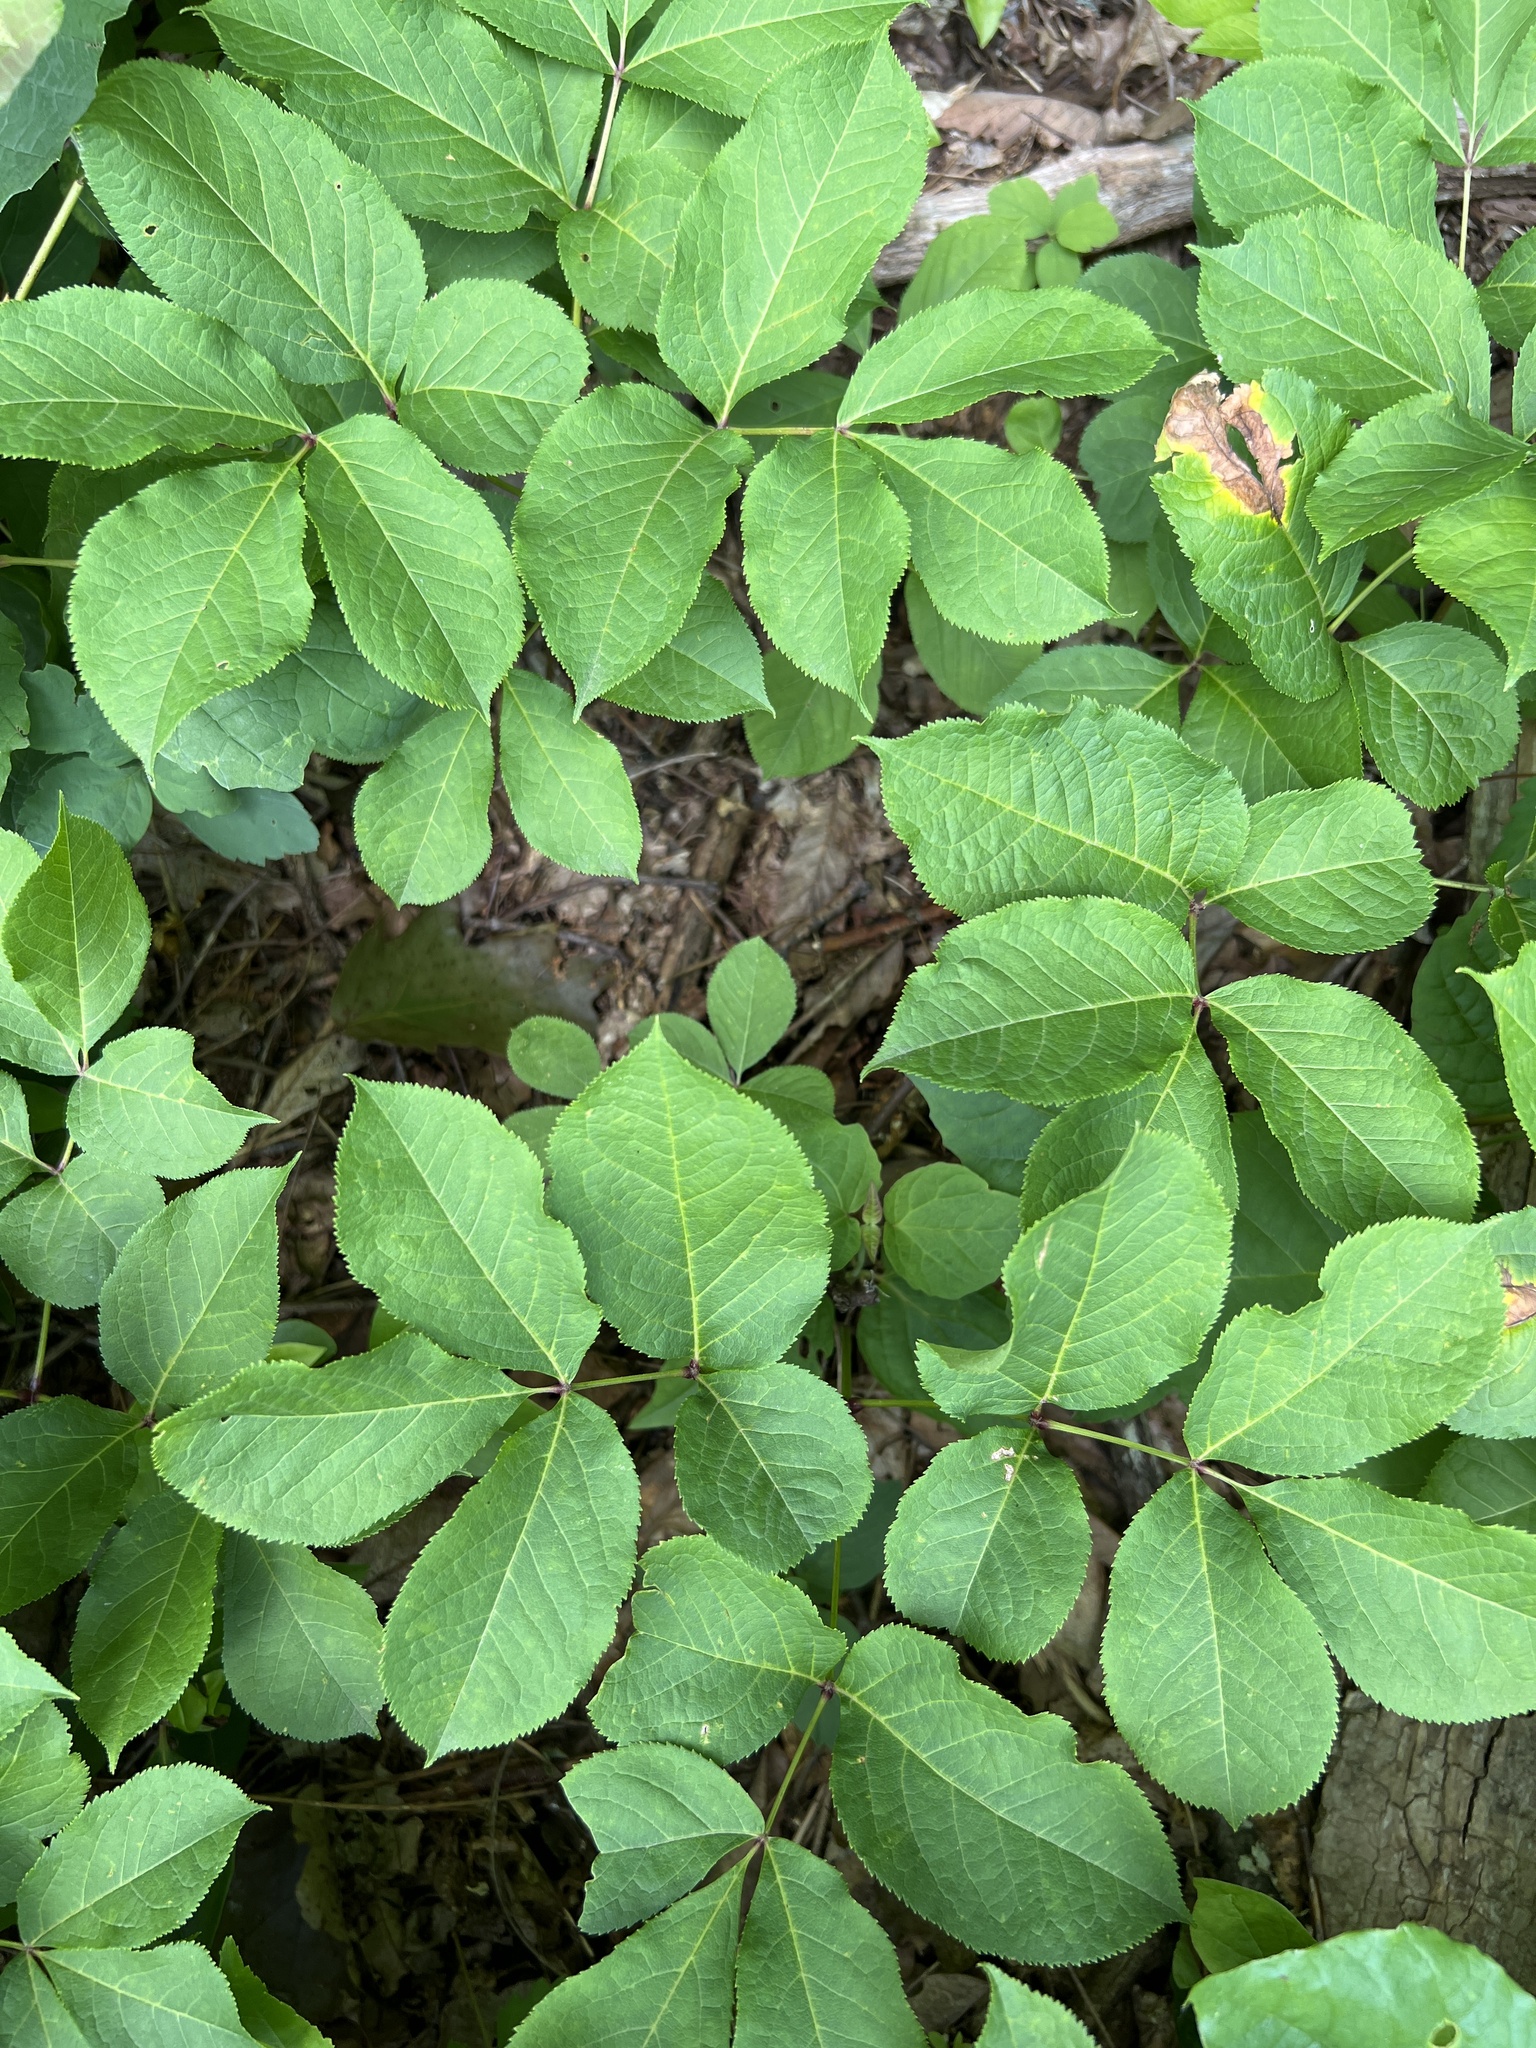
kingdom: Plantae
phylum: Tracheophyta
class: Magnoliopsida
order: Apiales
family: Araliaceae
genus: Aralia
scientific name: Aralia nudicaulis
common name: Wild sarsaparilla
